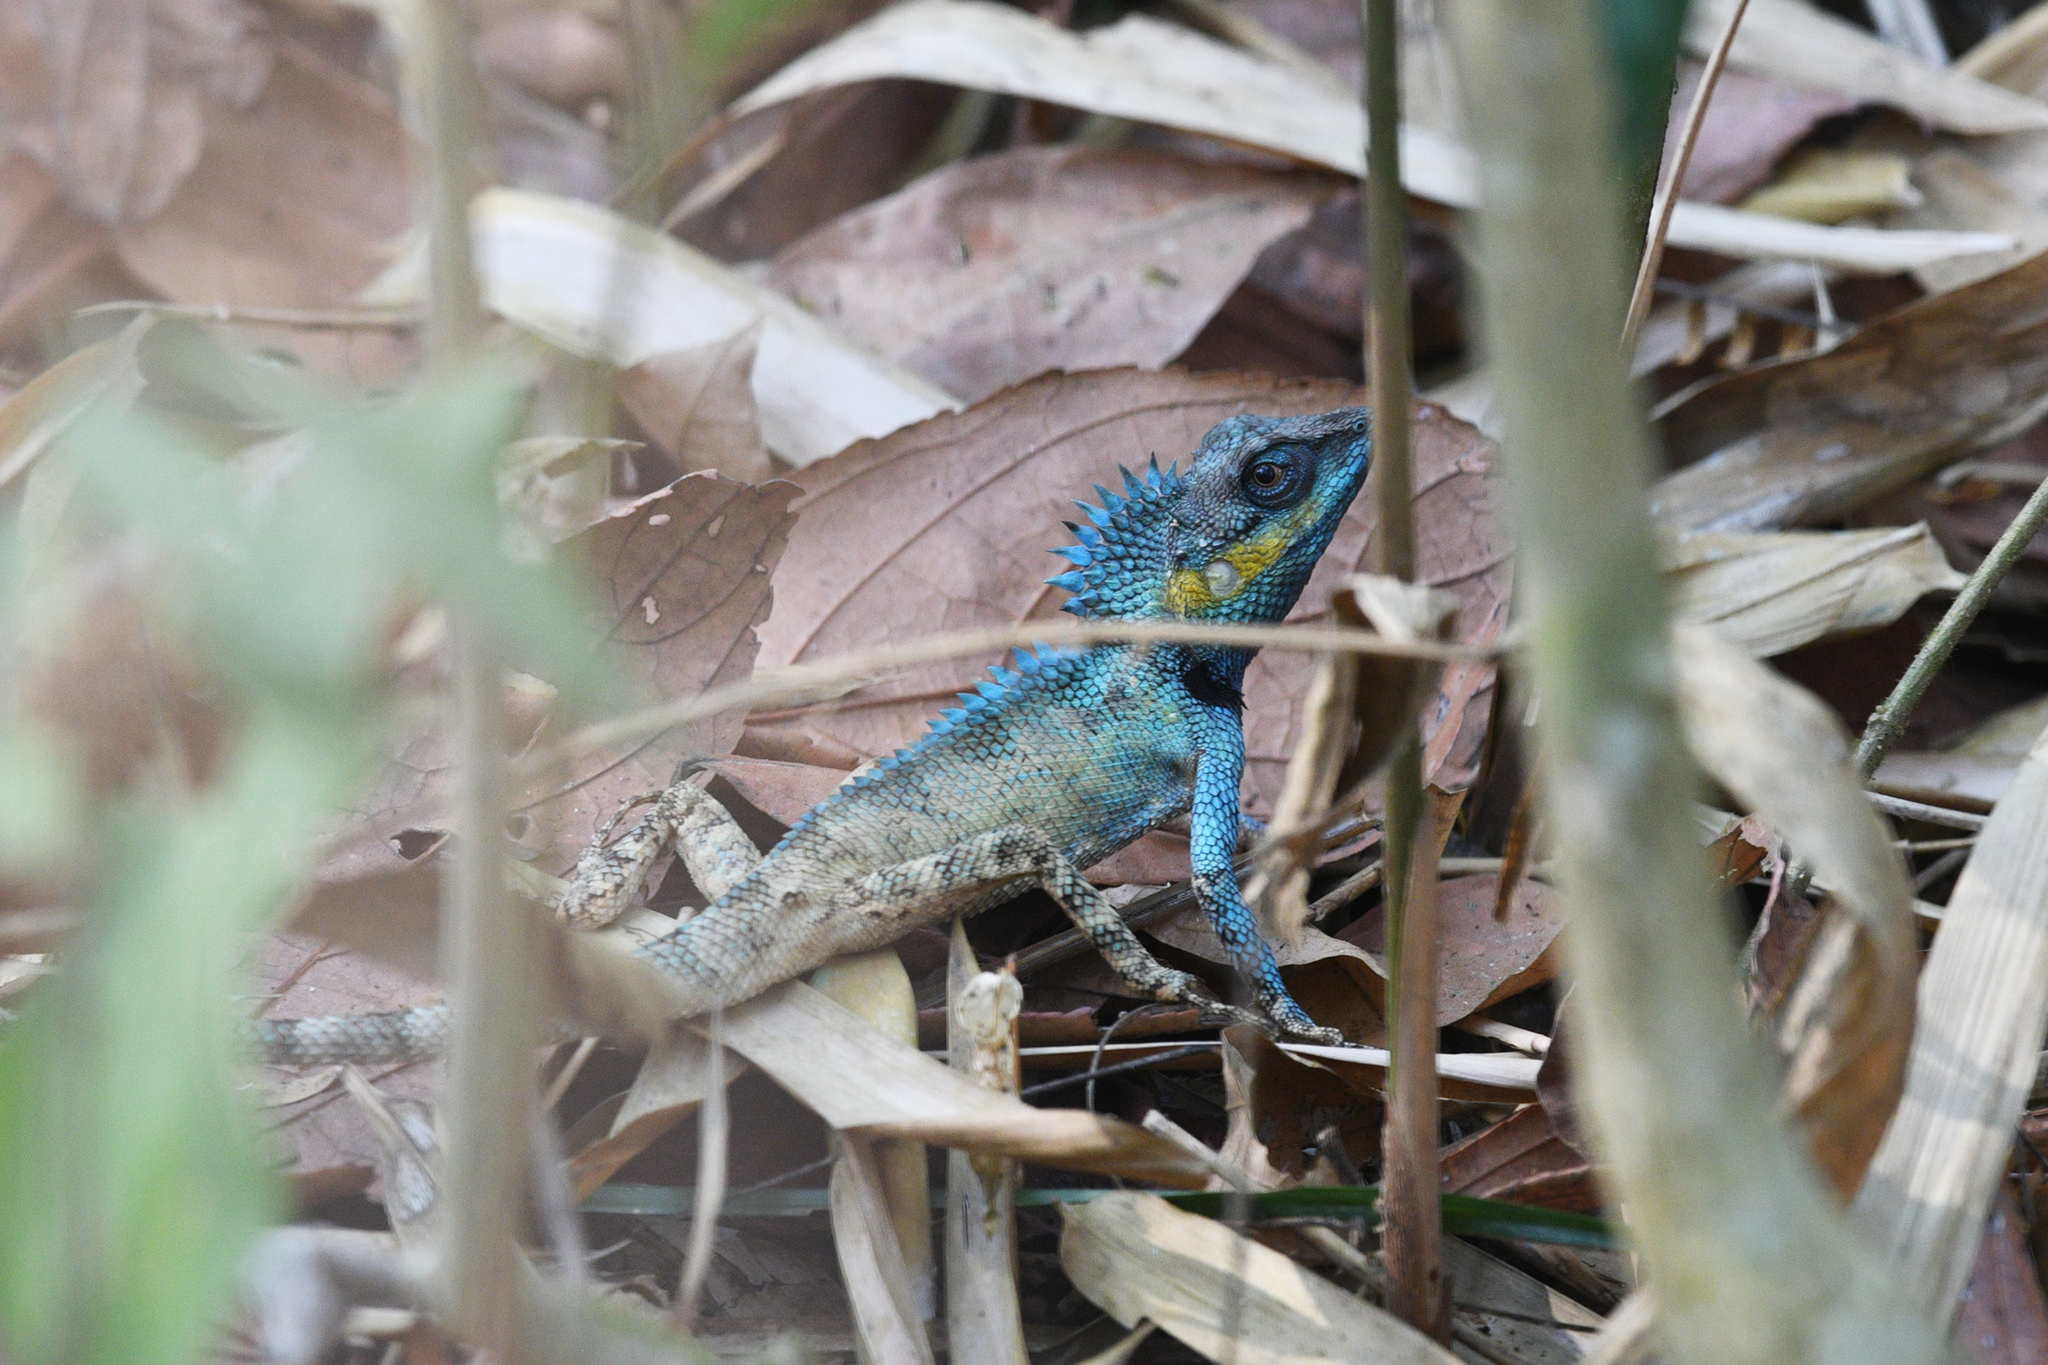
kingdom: Animalia
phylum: Chordata
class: Squamata
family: Agamidae
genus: Calotes
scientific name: Calotes bachae
